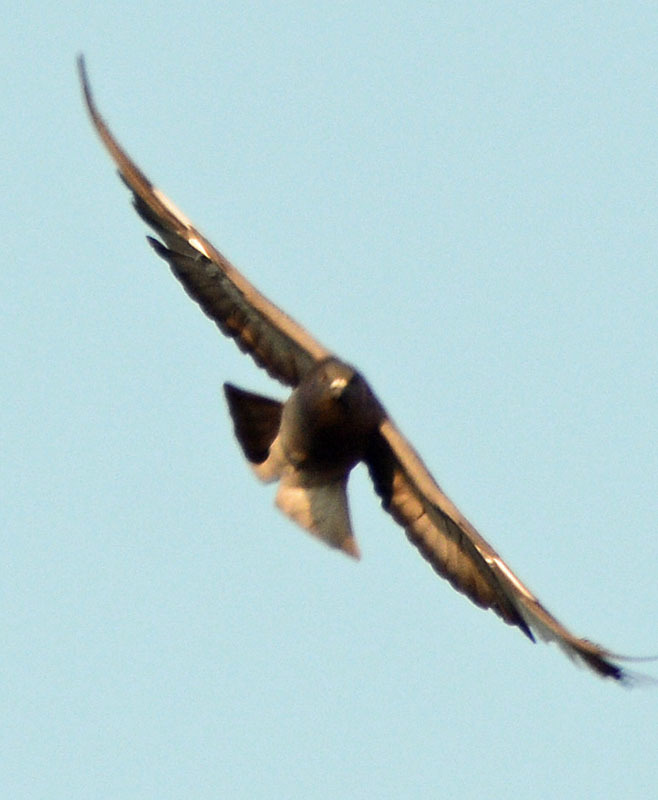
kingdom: Animalia
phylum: Chordata
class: Aves
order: Columbiformes
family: Columbidae
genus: Columba
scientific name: Columba livia
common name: Rock pigeon
